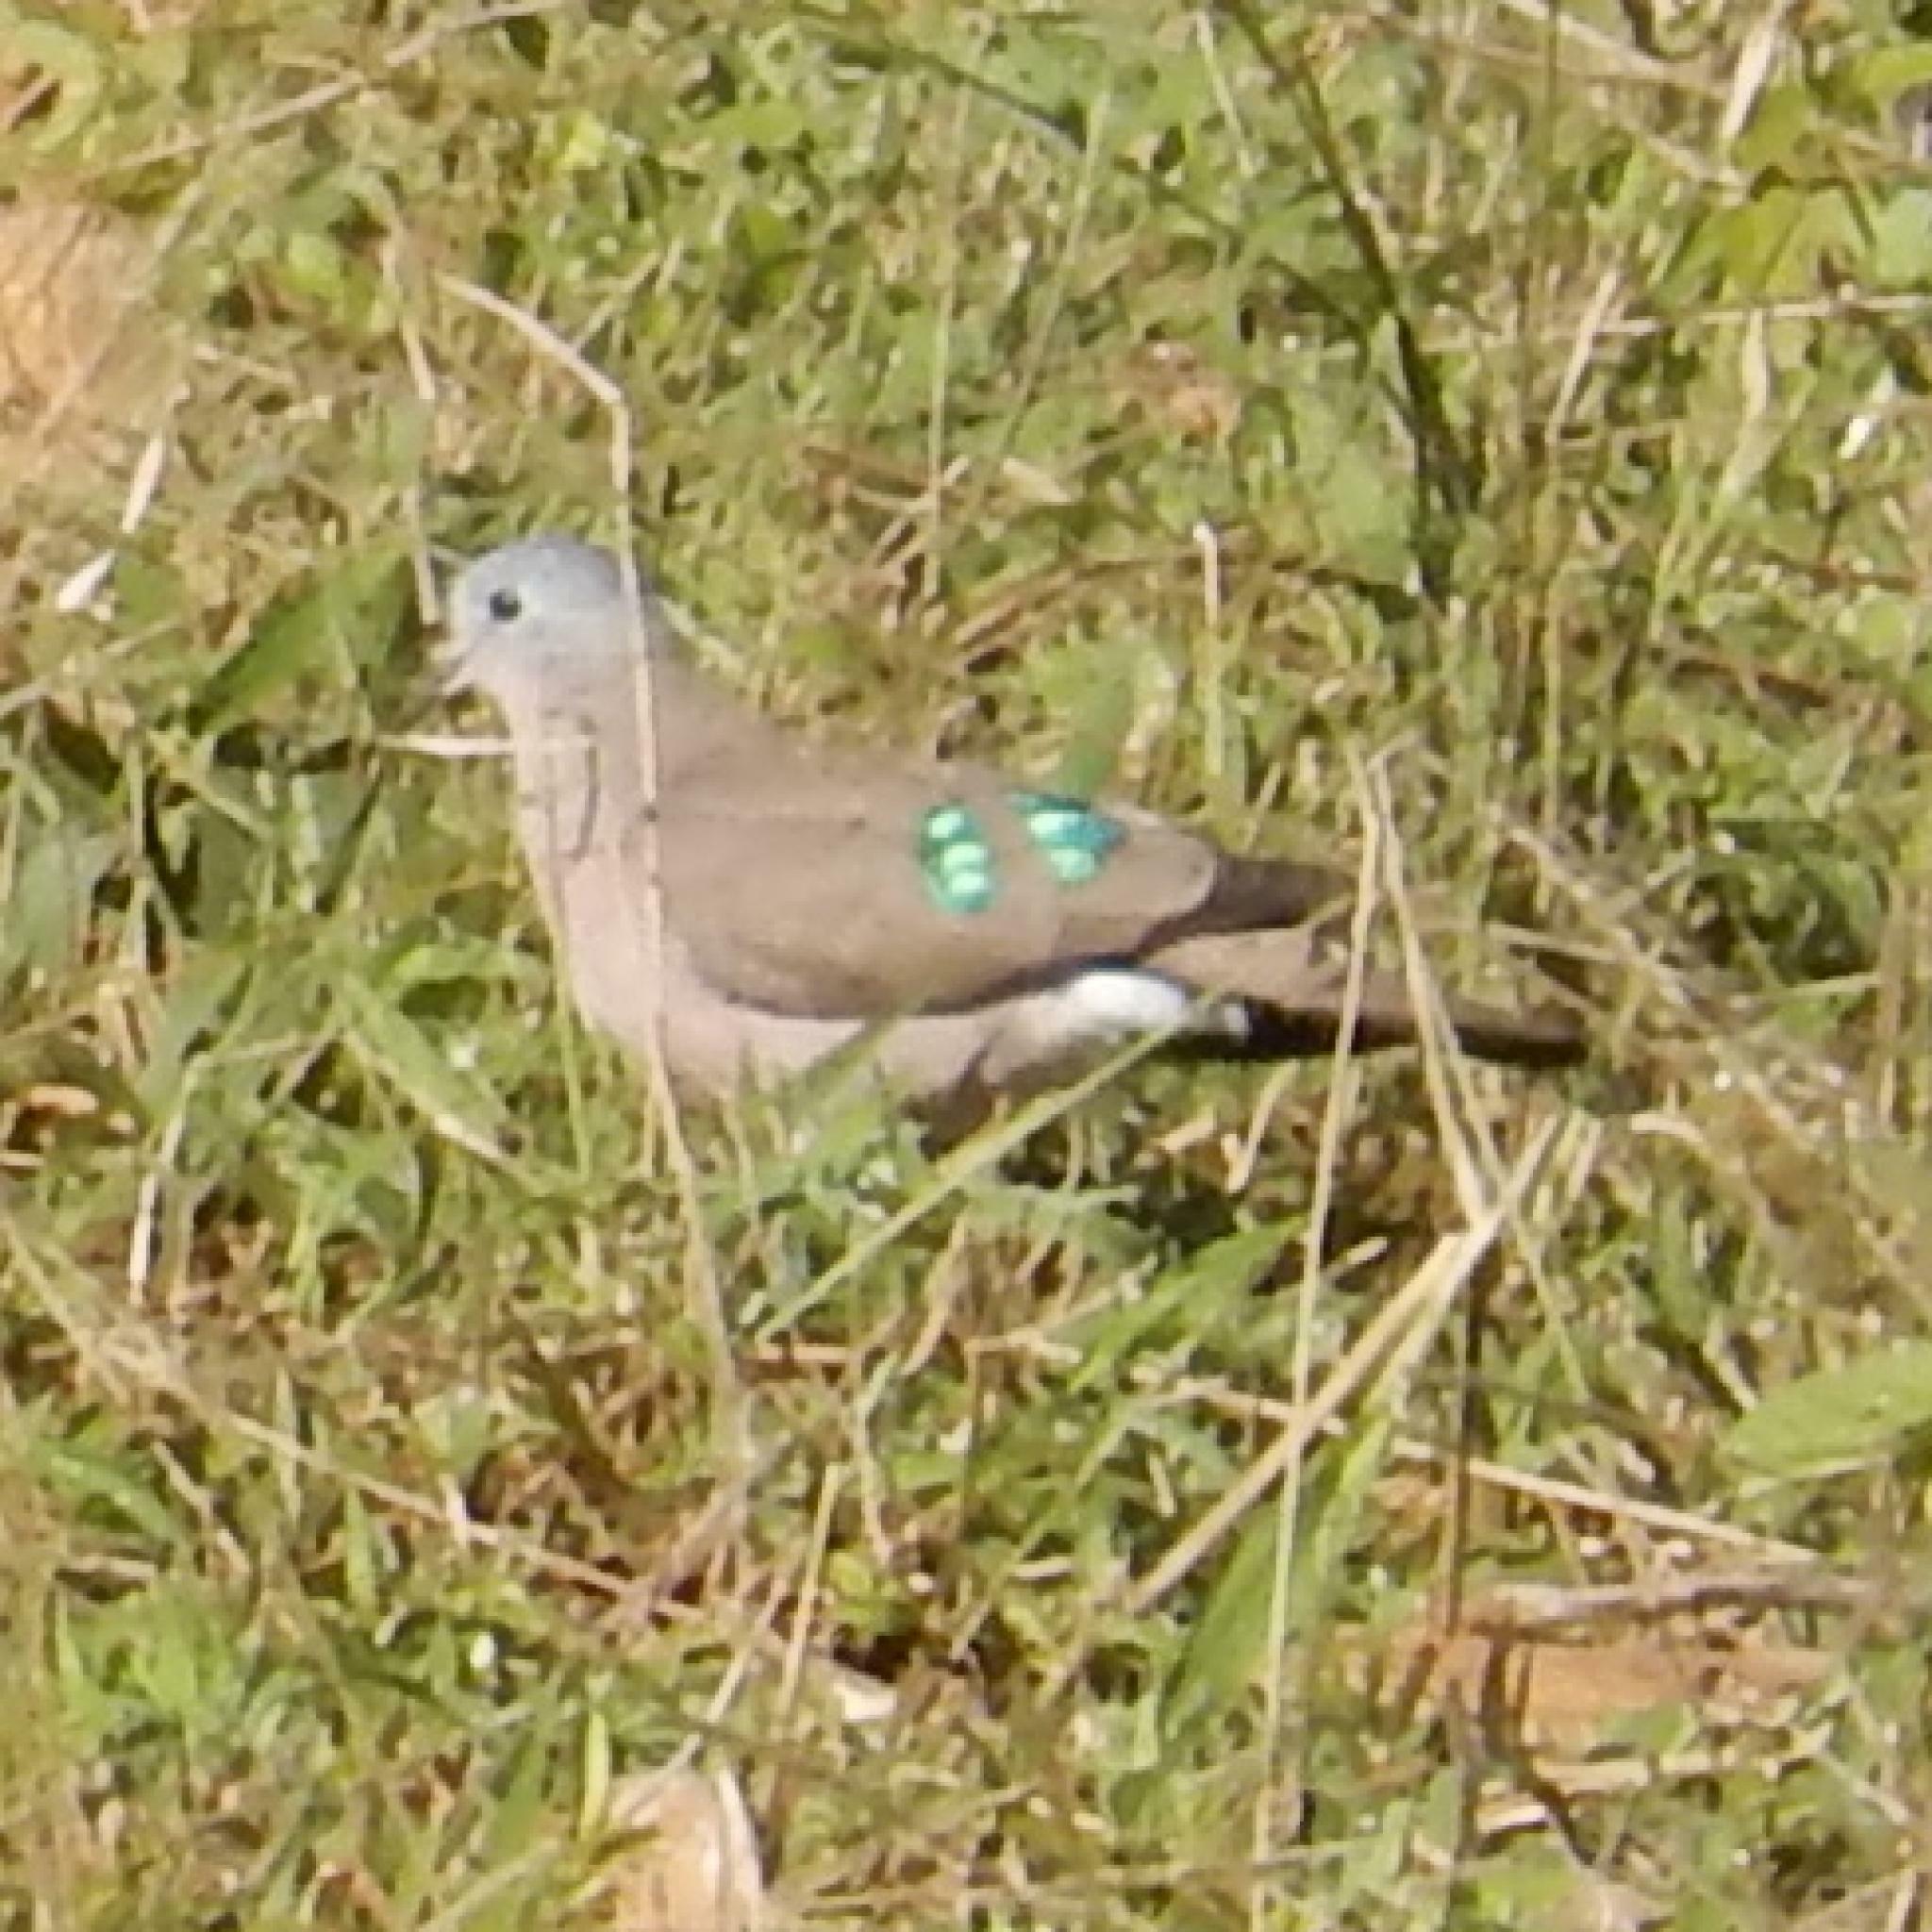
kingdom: Animalia
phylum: Chordata
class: Aves
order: Columbiformes
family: Columbidae
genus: Turtur
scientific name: Turtur chalcospilos
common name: Emerald-spotted wood dove
